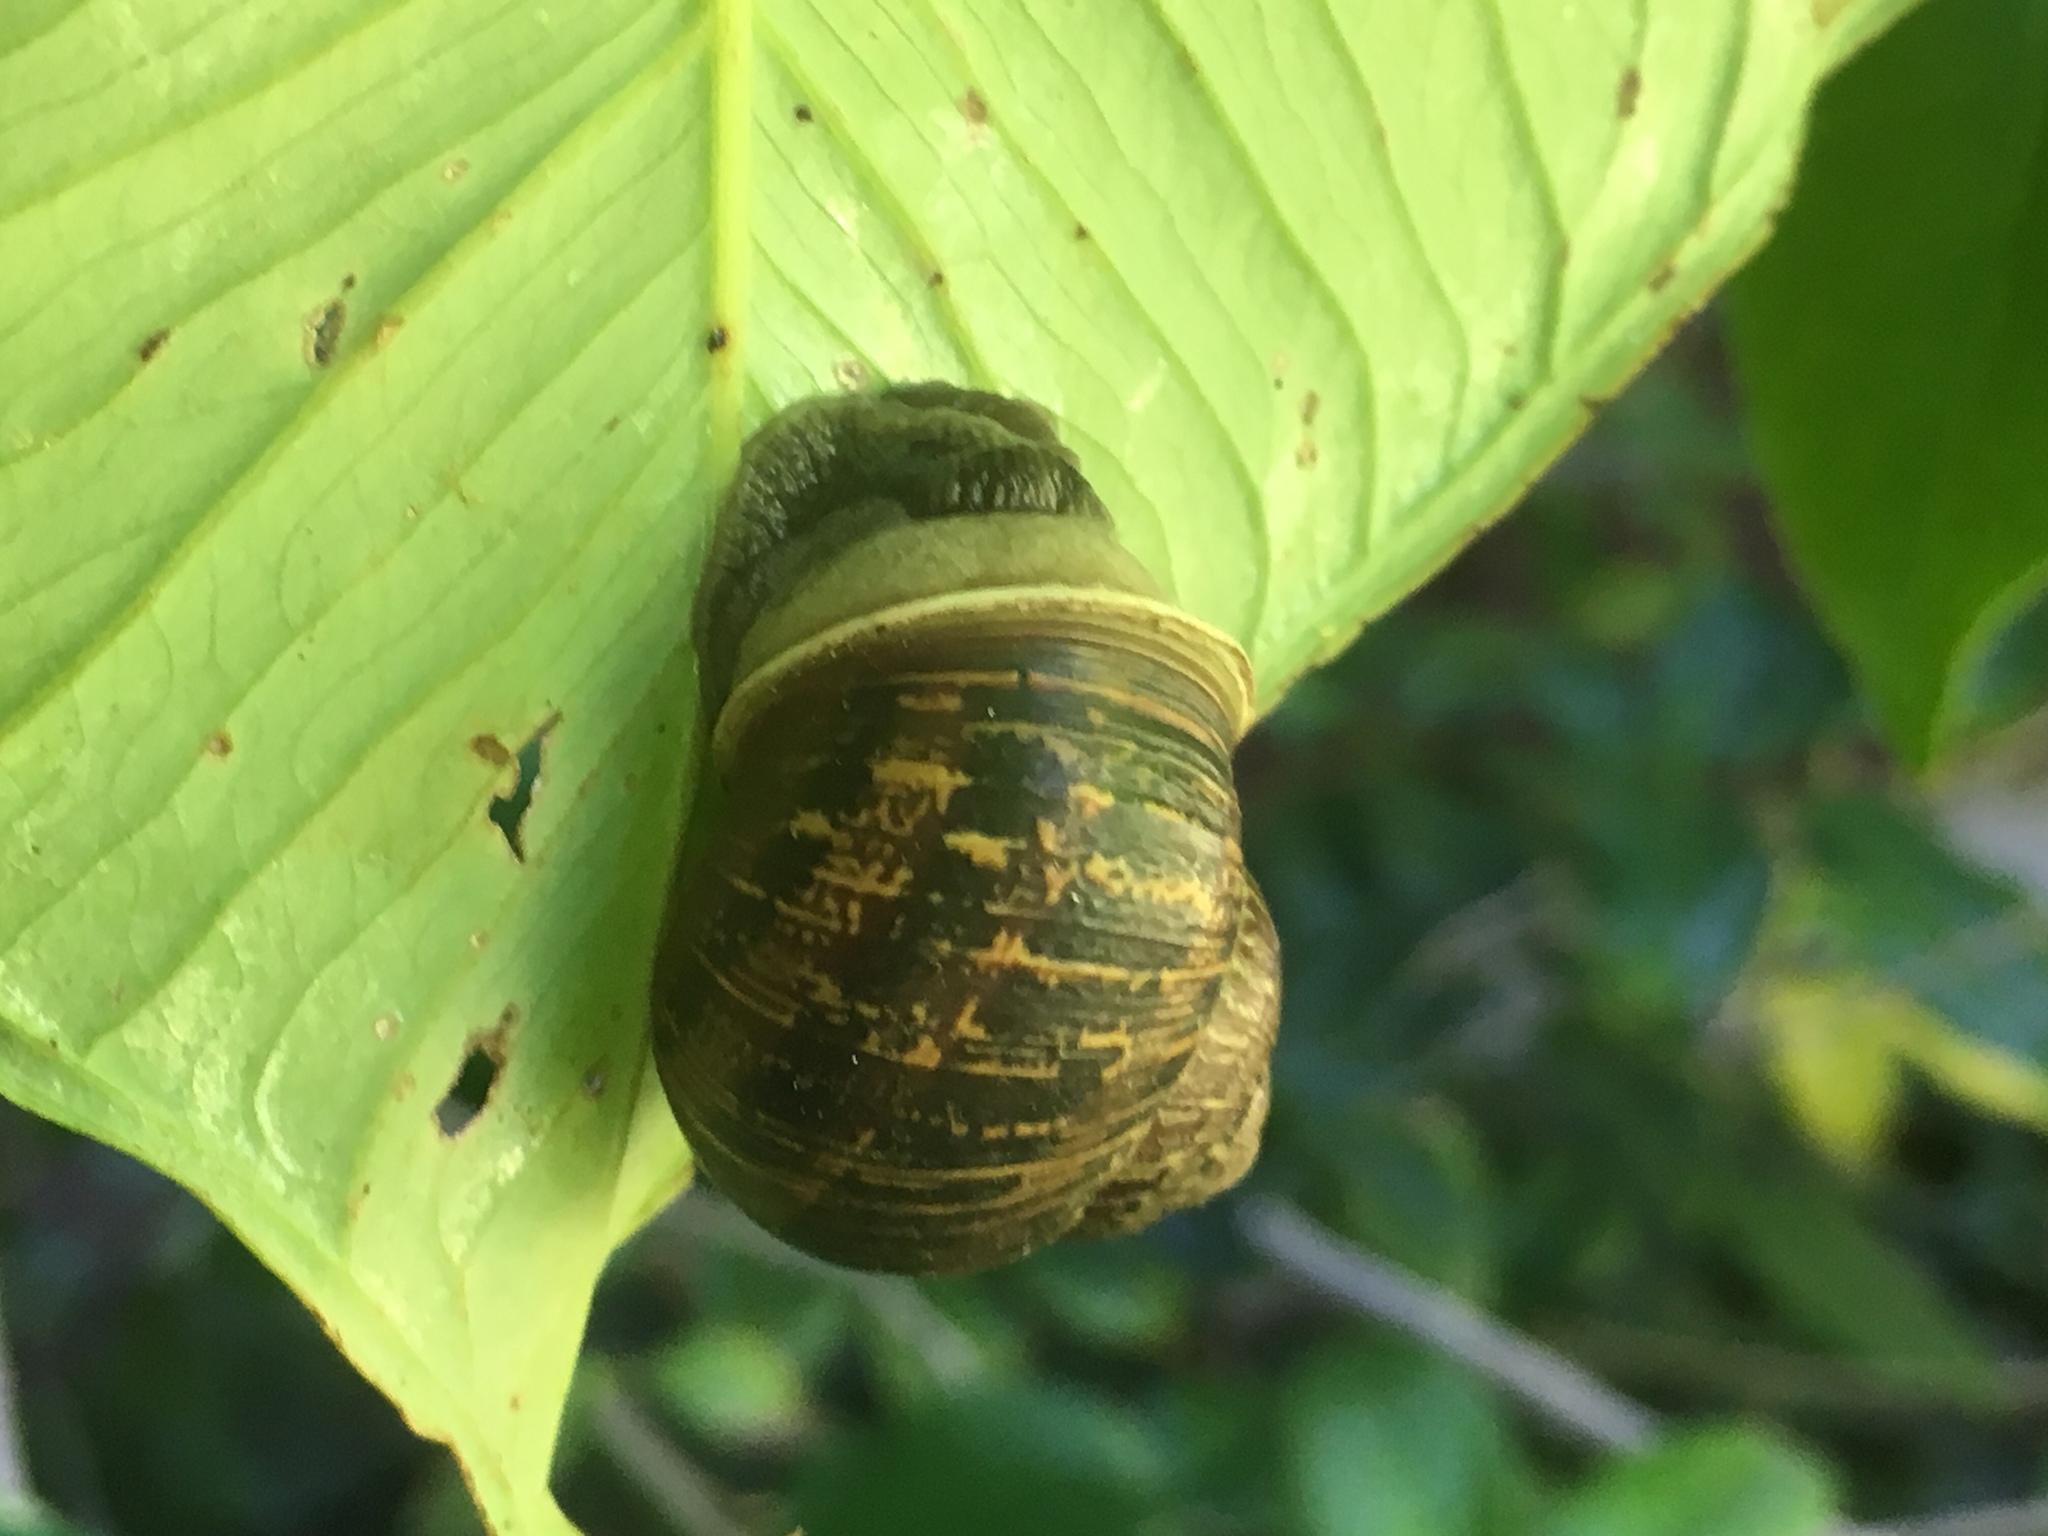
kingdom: Animalia
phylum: Mollusca
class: Gastropoda
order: Stylommatophora
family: Helicidae
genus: Cornu
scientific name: Cornu aspersum
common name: Brown garden snail
